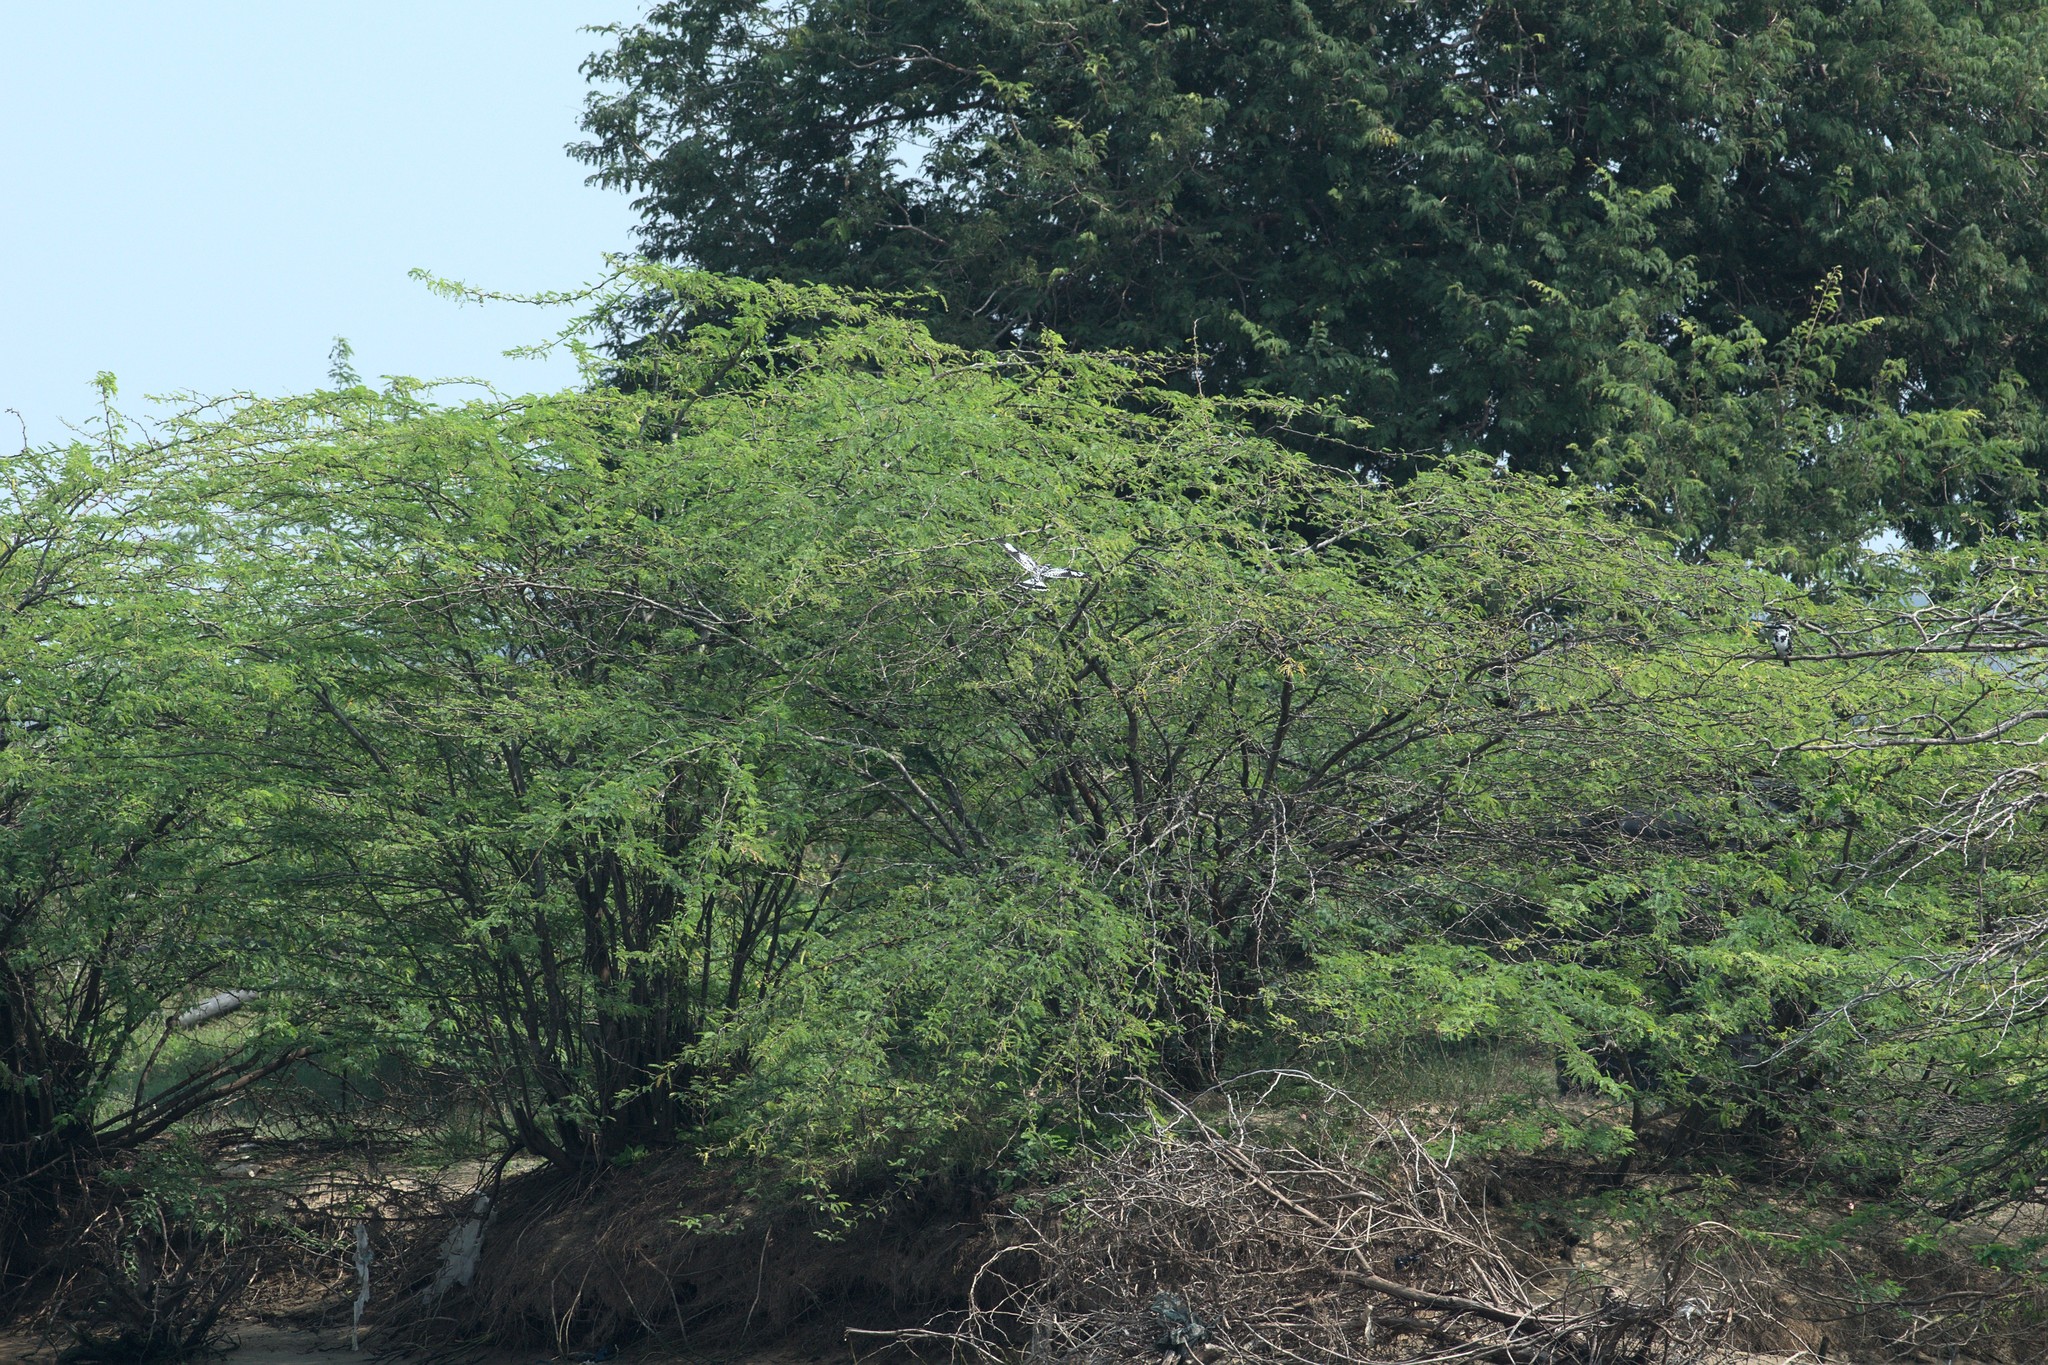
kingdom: Animalia
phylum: Chordata
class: Aves
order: Coraciiformes
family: Alcedinidae
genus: Ceryle
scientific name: Ceryle rudis
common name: Pied kingfisher
